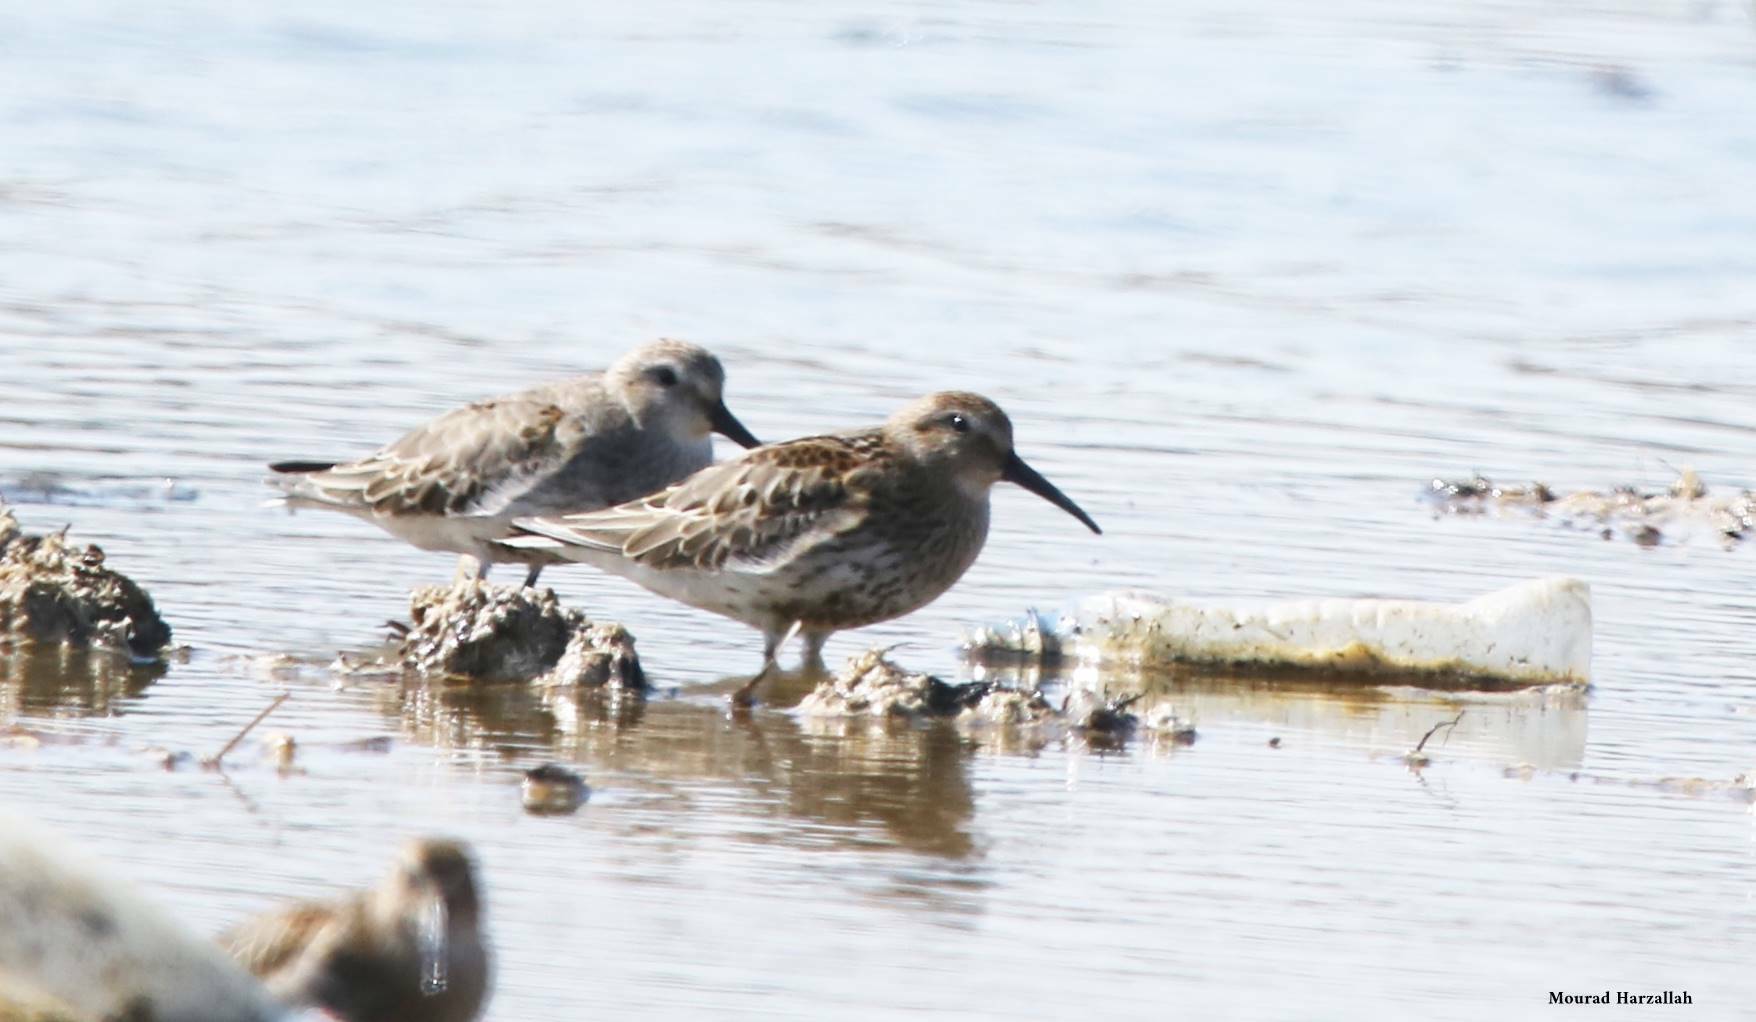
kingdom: Animalia
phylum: Chordata
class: Aves
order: Charadriiformes
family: Scolopacidae
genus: Calidris
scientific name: Calidris alpina
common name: Dunlin
